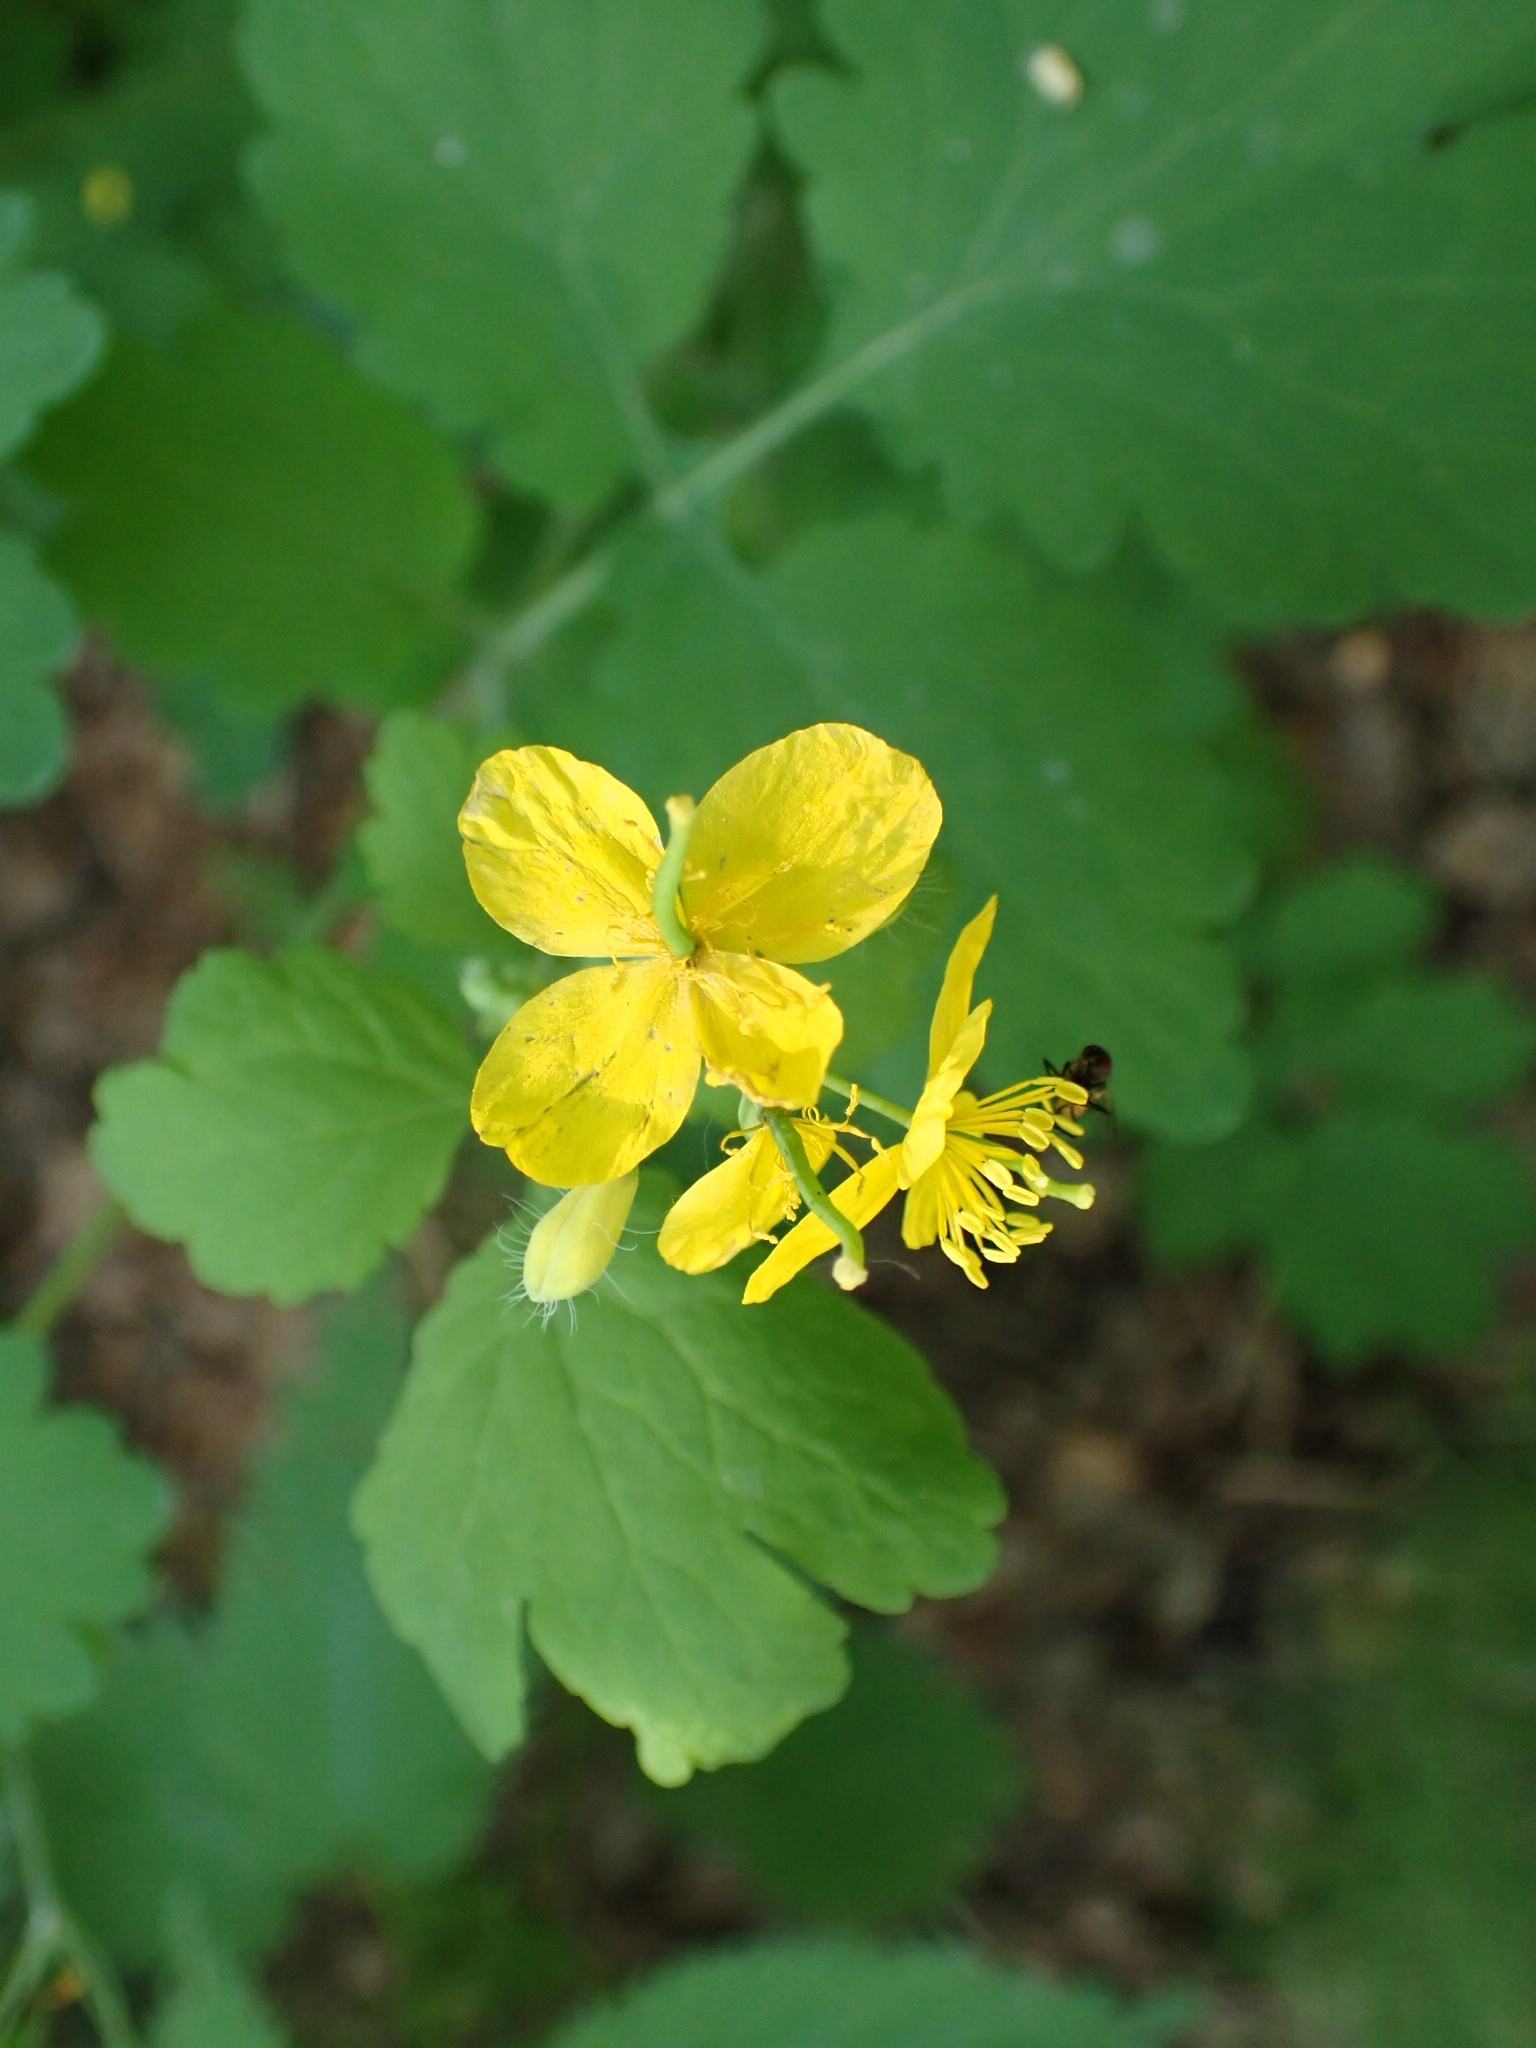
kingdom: Plantae
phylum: Tracheophyta
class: Magnoliopsida
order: Ranunculales
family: Papaveraceae
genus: Chelidonium
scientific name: Chelidonium majus
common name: Greater celandine
